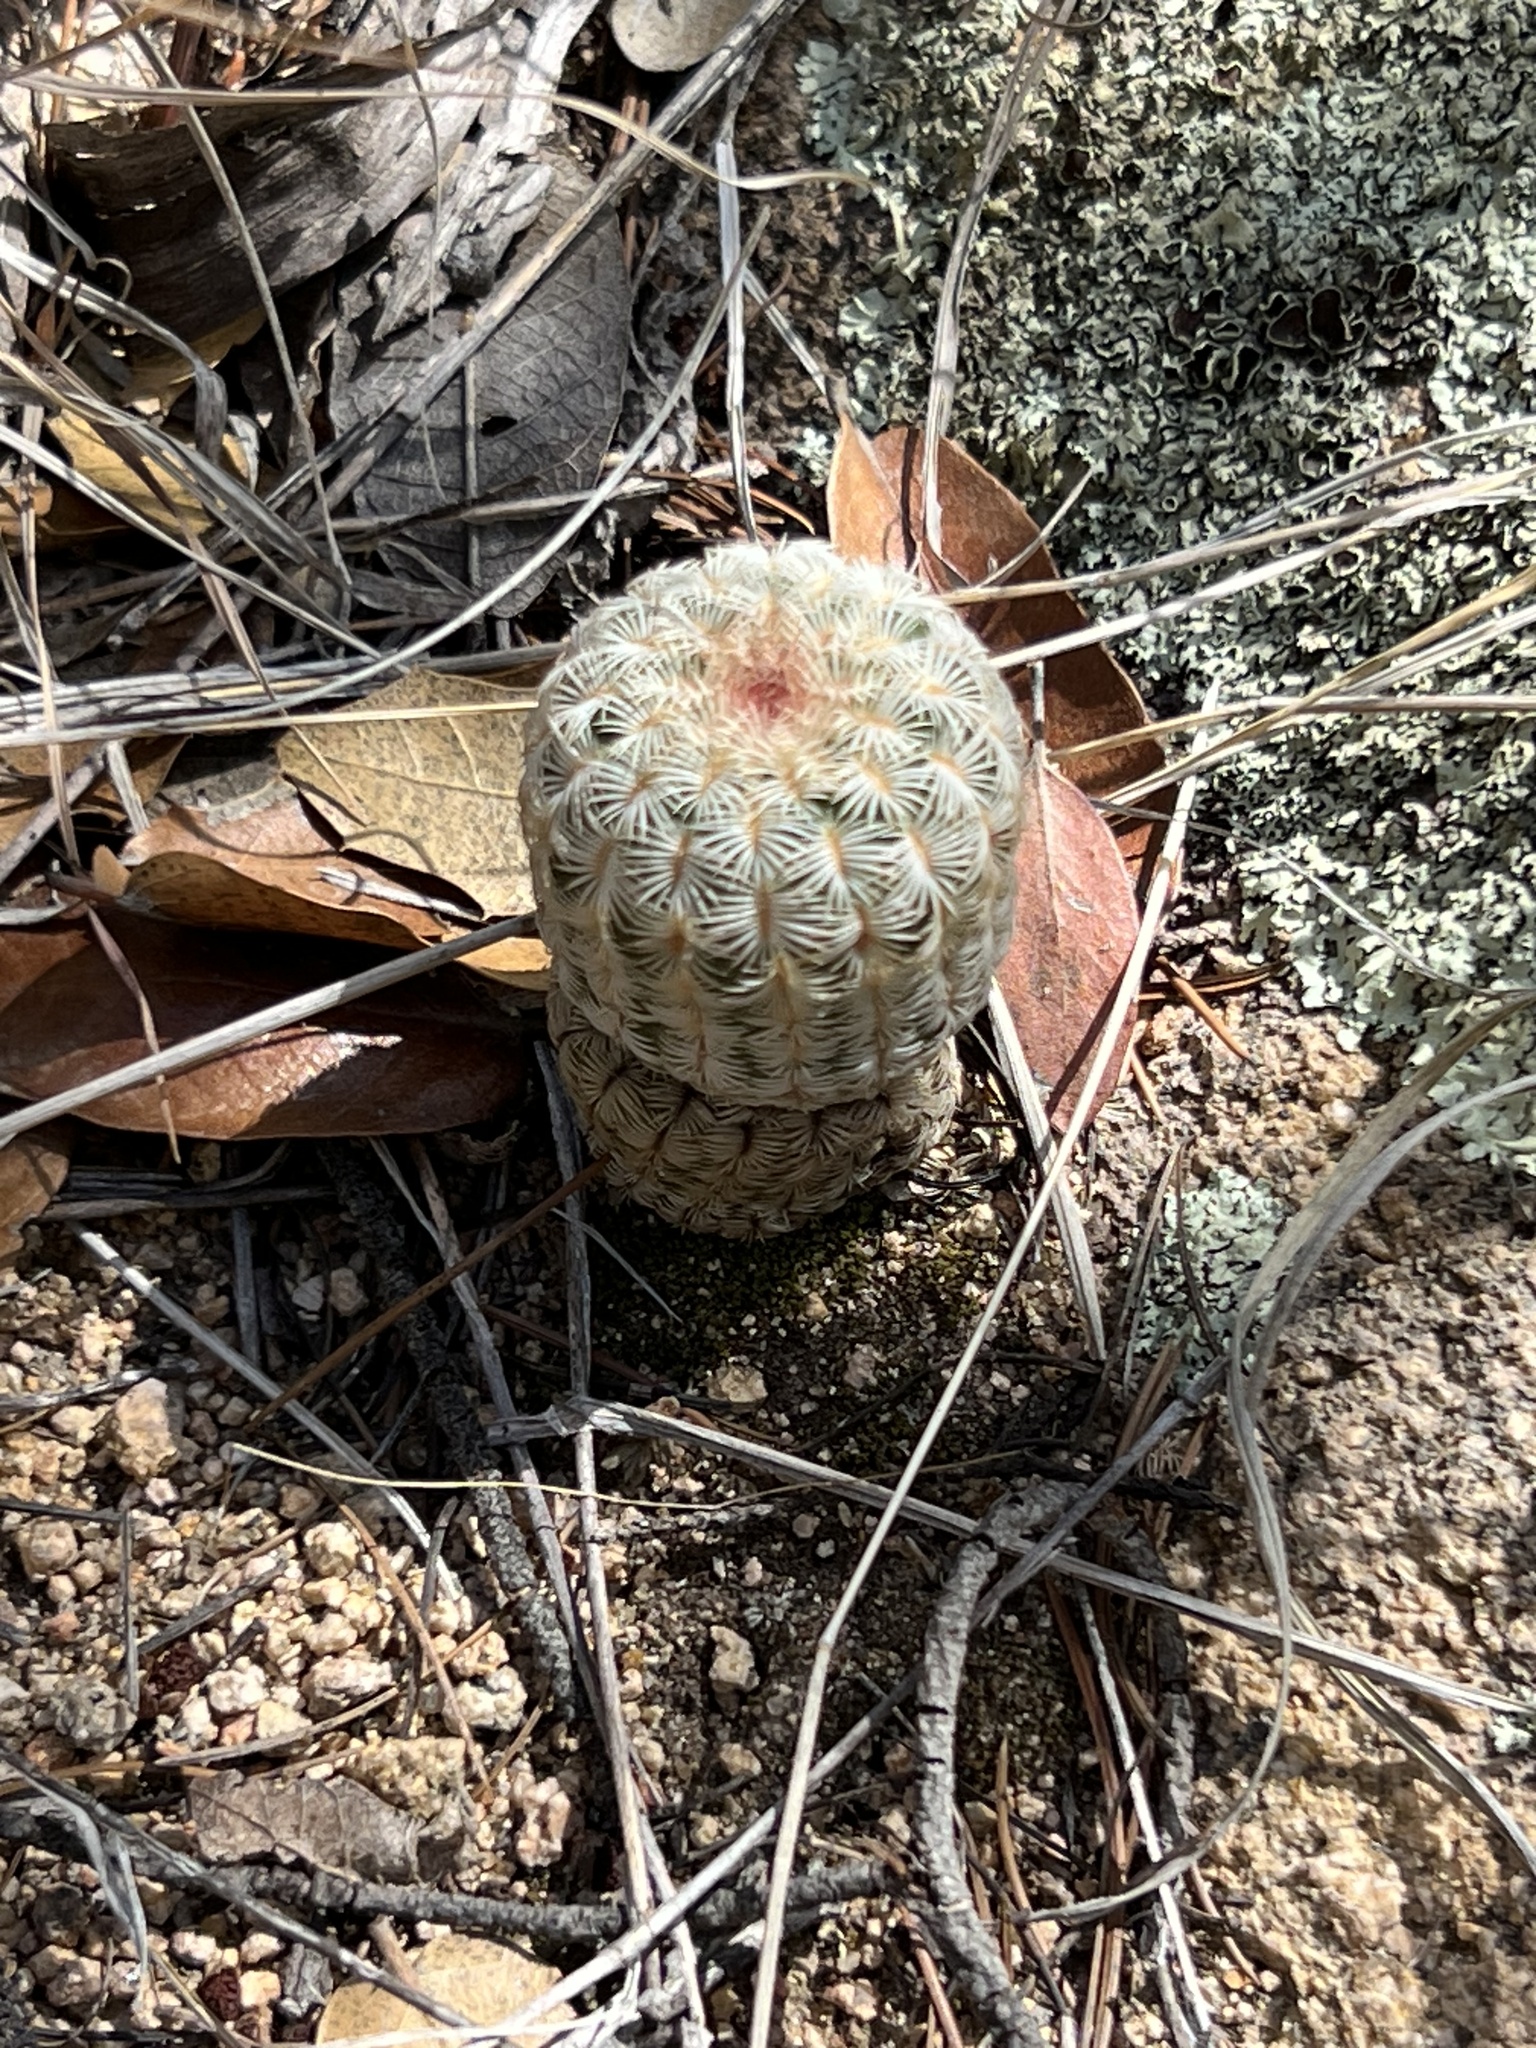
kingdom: Plantae
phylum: Tracheophyta
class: Magnoliopsida
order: Caryophyllales
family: Cactaceae
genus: Echinocereus
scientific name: Echinocereus rigidissimus
